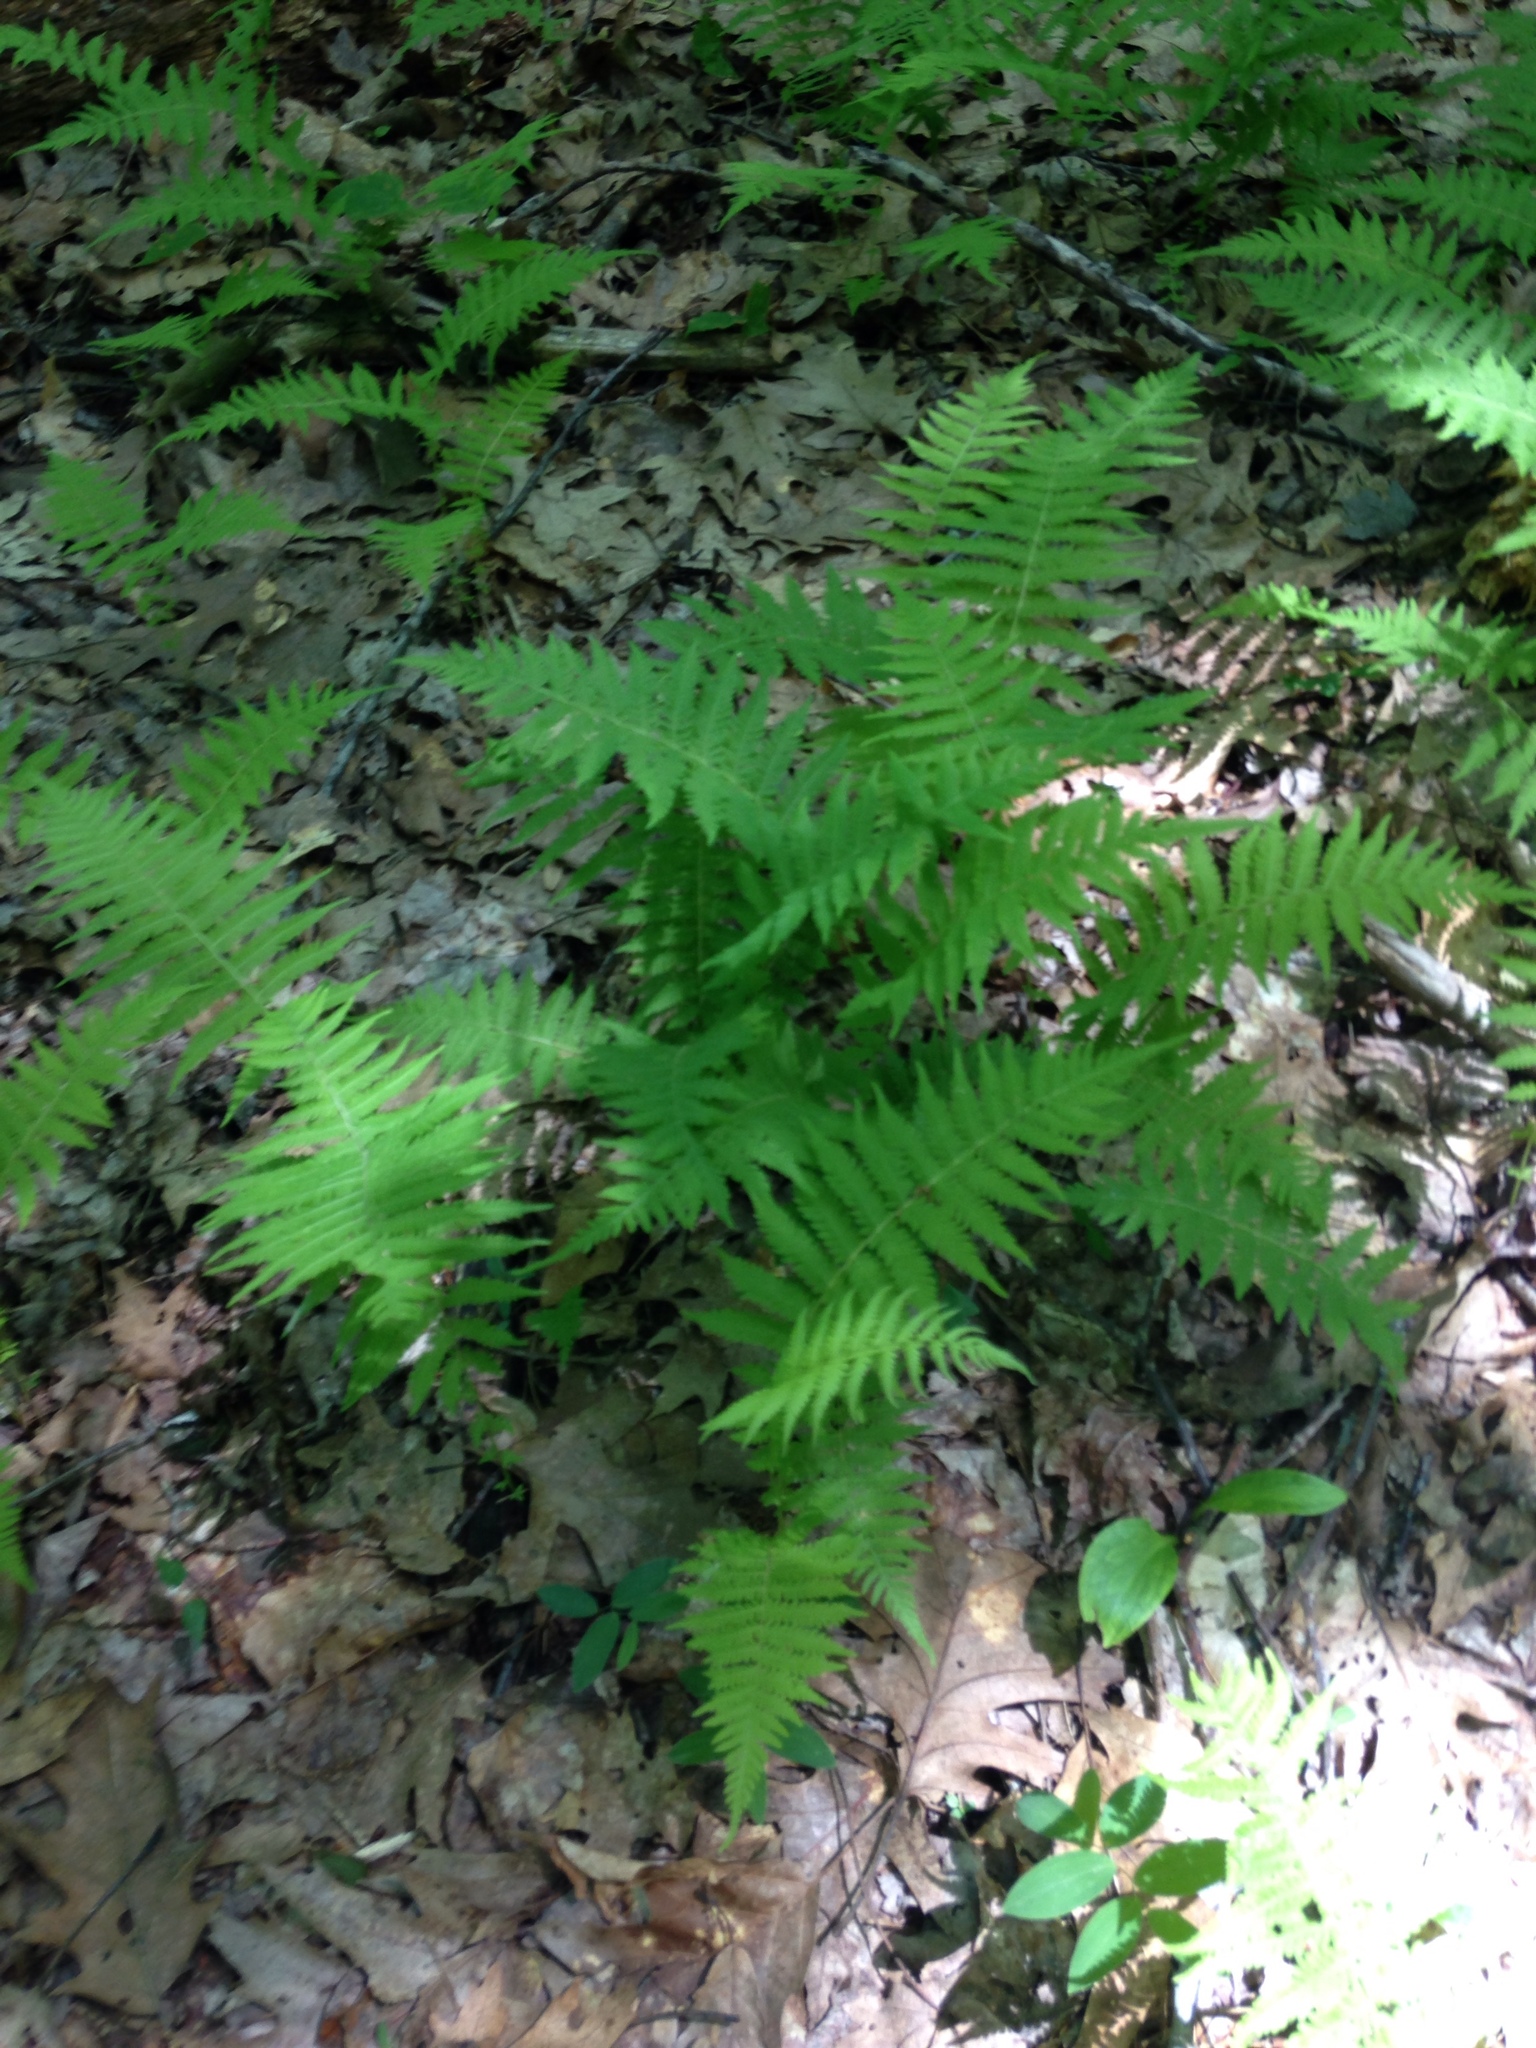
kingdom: Plantae
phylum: Tracheophyta
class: Polypodiopsida
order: Polypodiales
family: Thelypteridaceae
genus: Amauropelta
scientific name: Amauropelta noveboracensis
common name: New york fern
